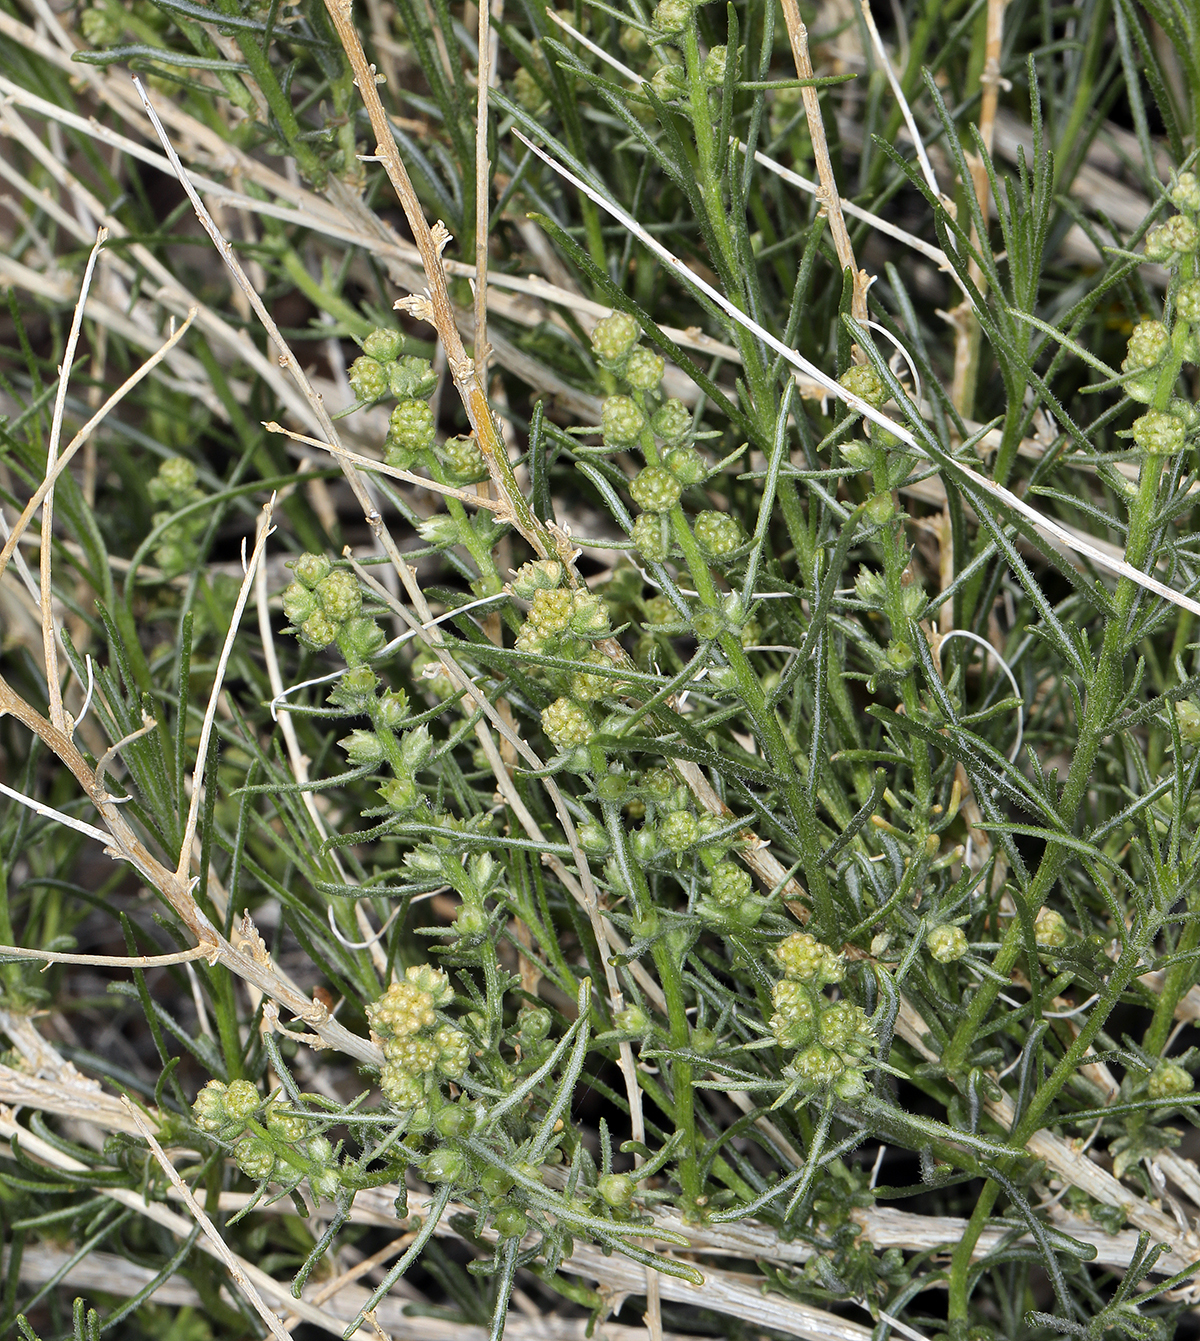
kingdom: Plantae
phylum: Tracheophyta
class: Magnoliopsida
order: Asterales
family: Asteraceae
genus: Ambrosia
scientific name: Ambrosia salsola
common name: Burrobrush
